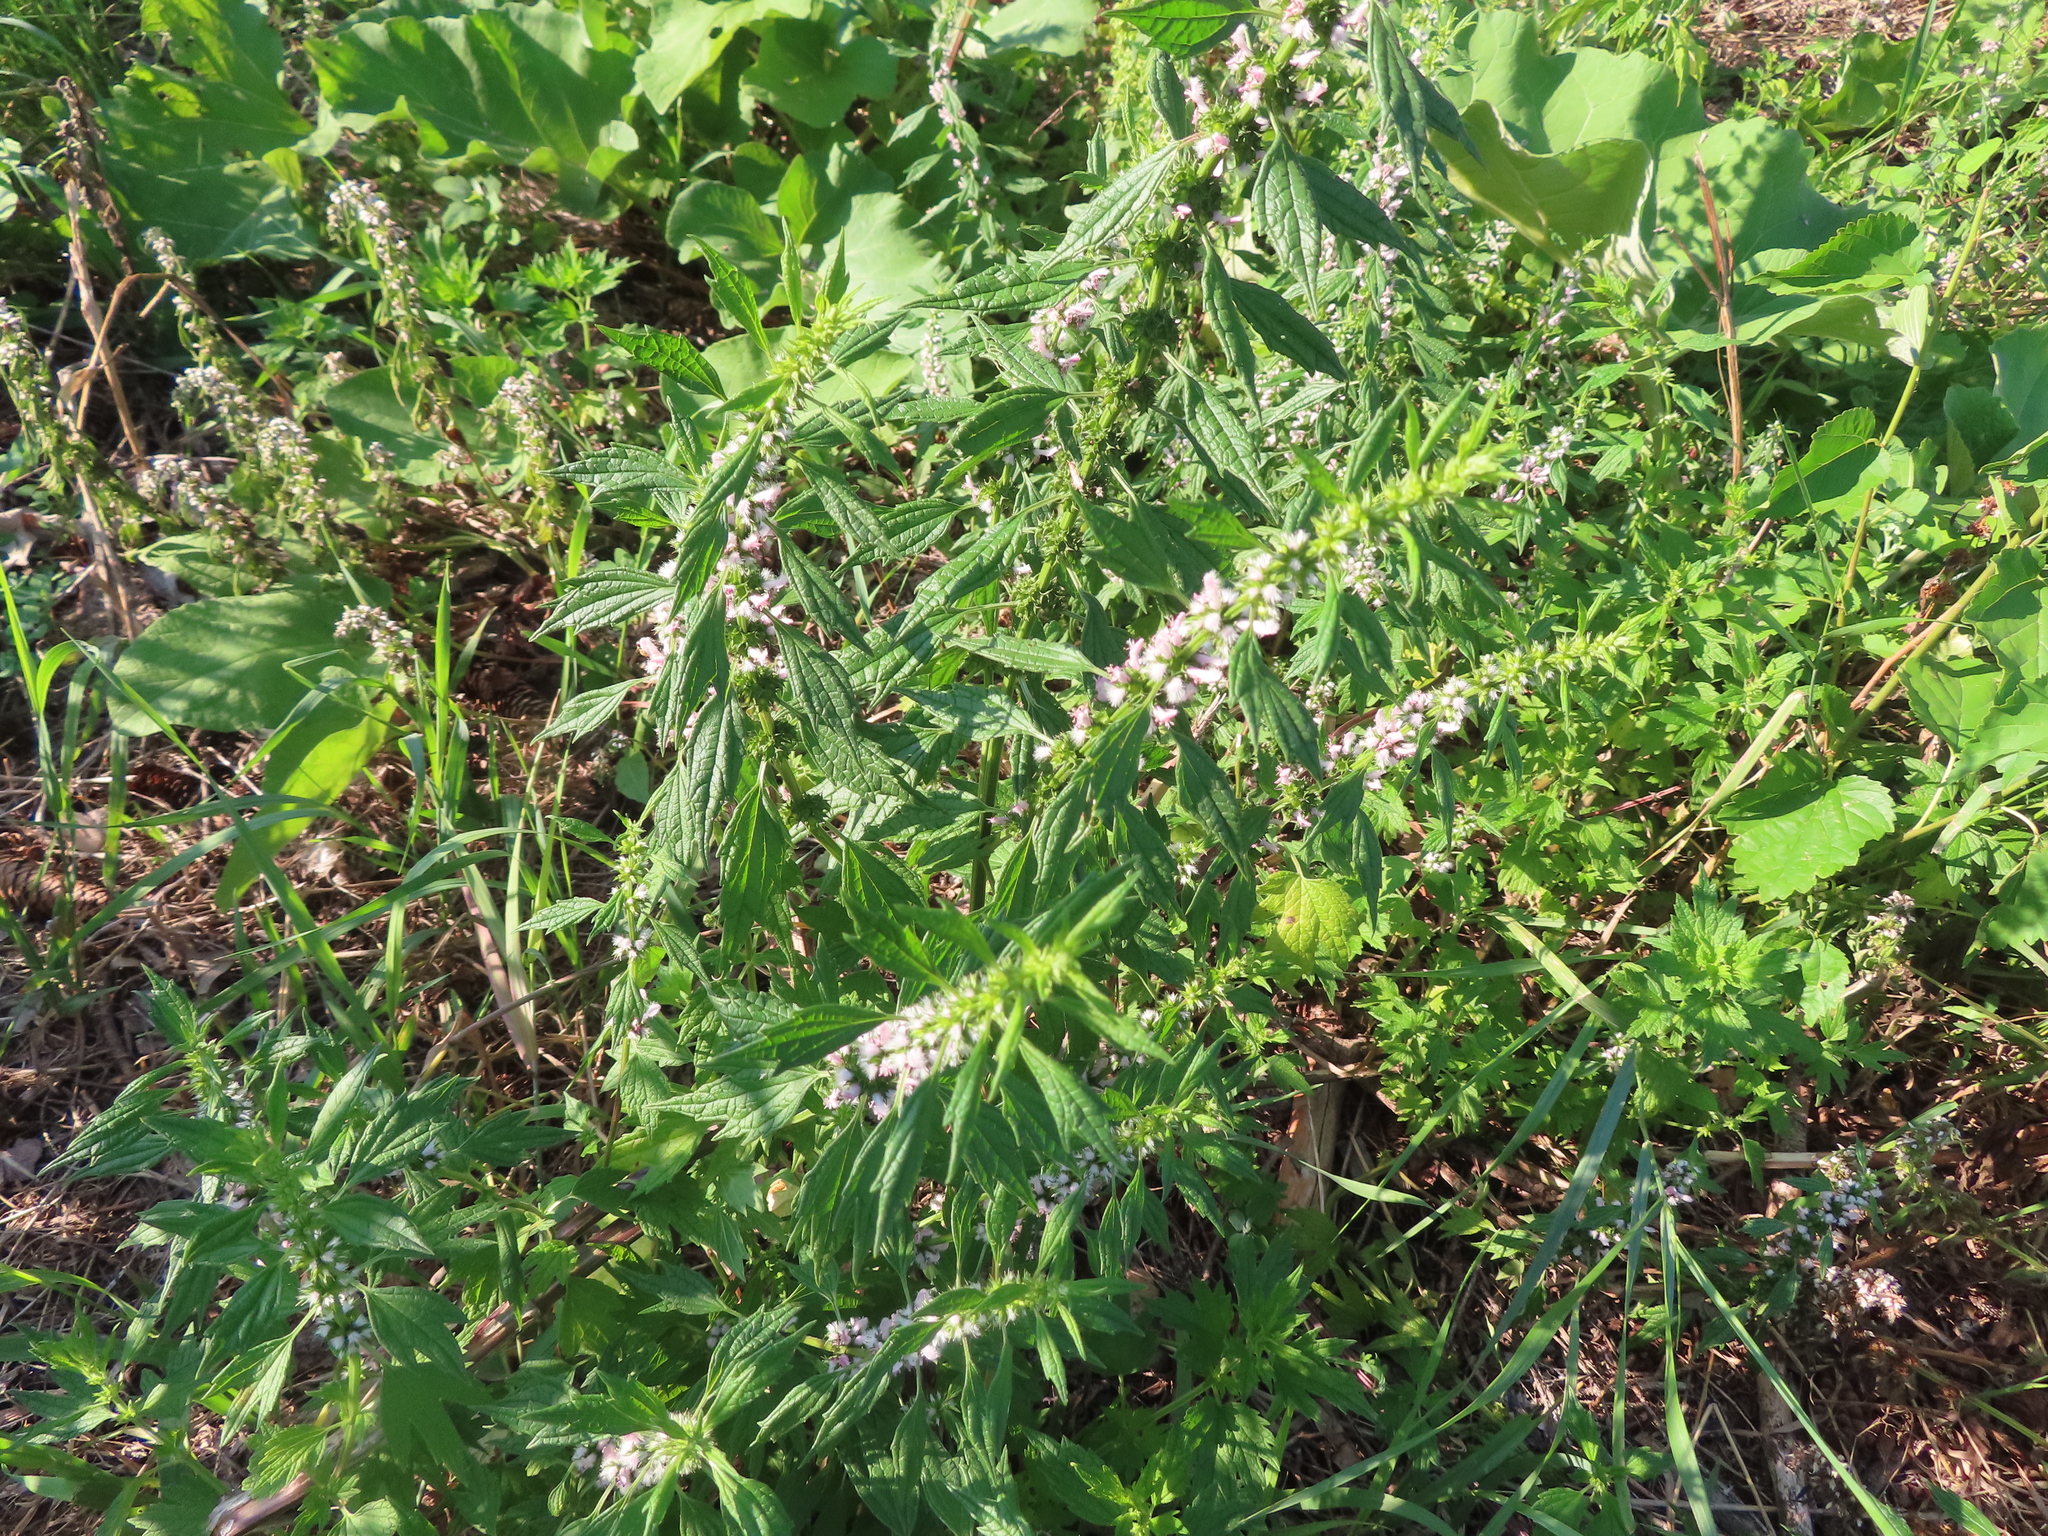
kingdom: Plantae
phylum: Tracheophyta
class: Magnoliopsida
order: Lamiales
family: Lamiaceae
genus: Leonurus
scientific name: Leonurus cardiaca
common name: Motherwort
